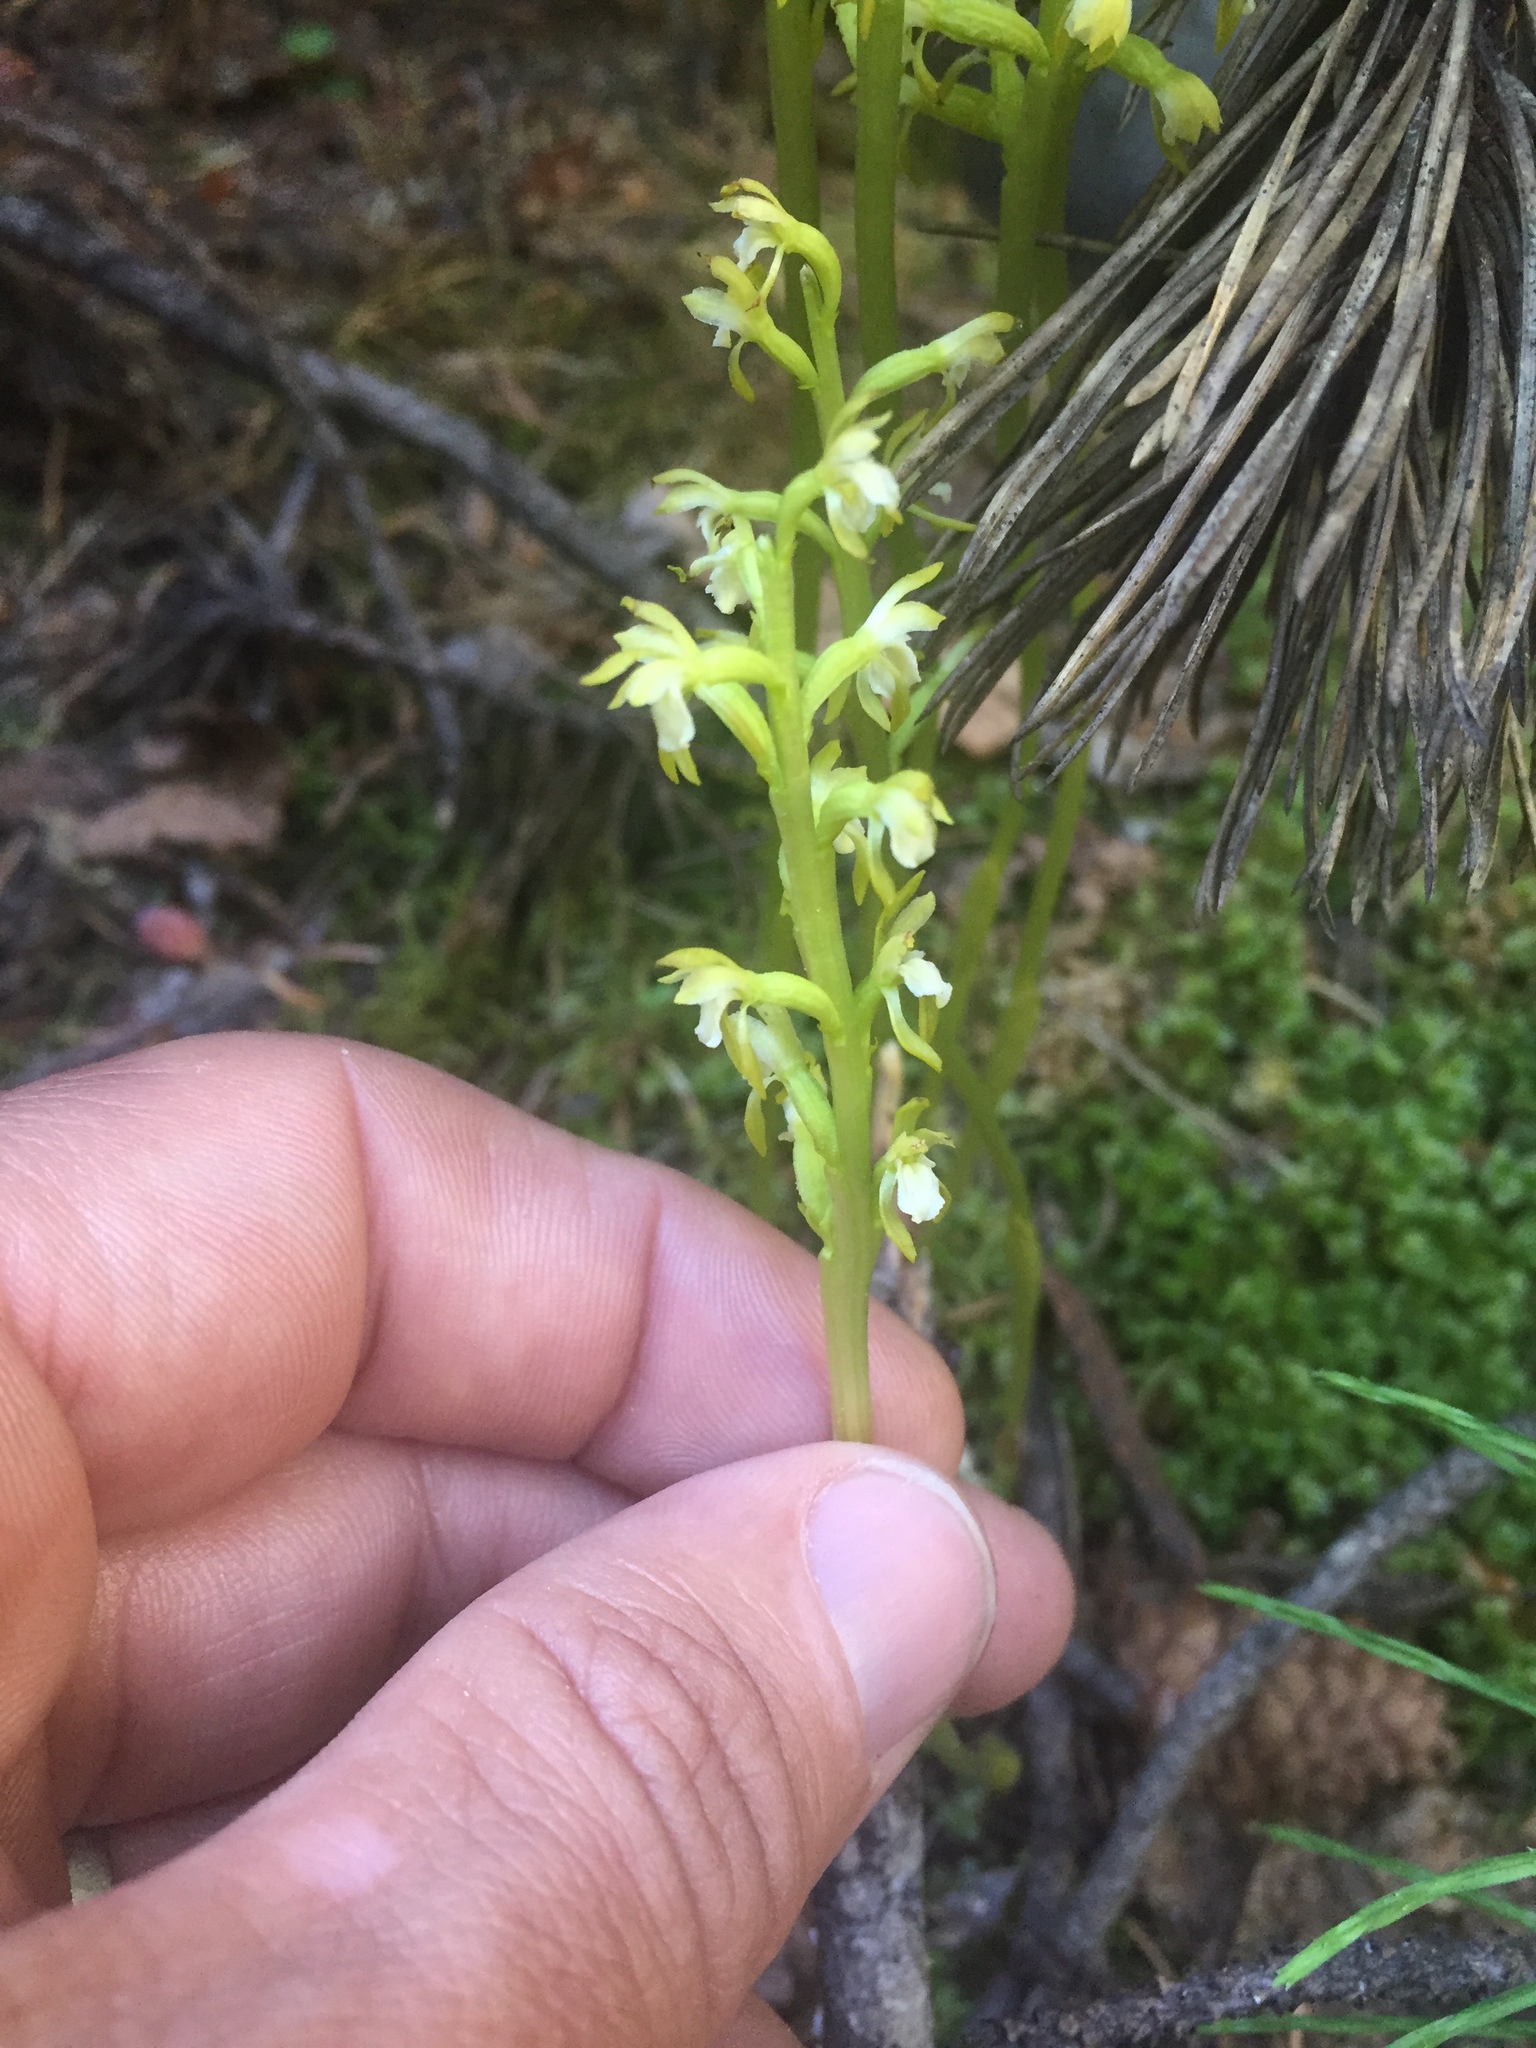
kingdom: Plantae
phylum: Tracheophyta
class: Liliopsida
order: Asparagales
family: Orchidaceae
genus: Corallorhiza
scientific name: Corallorhiza trifida
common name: Yellow coralroot
